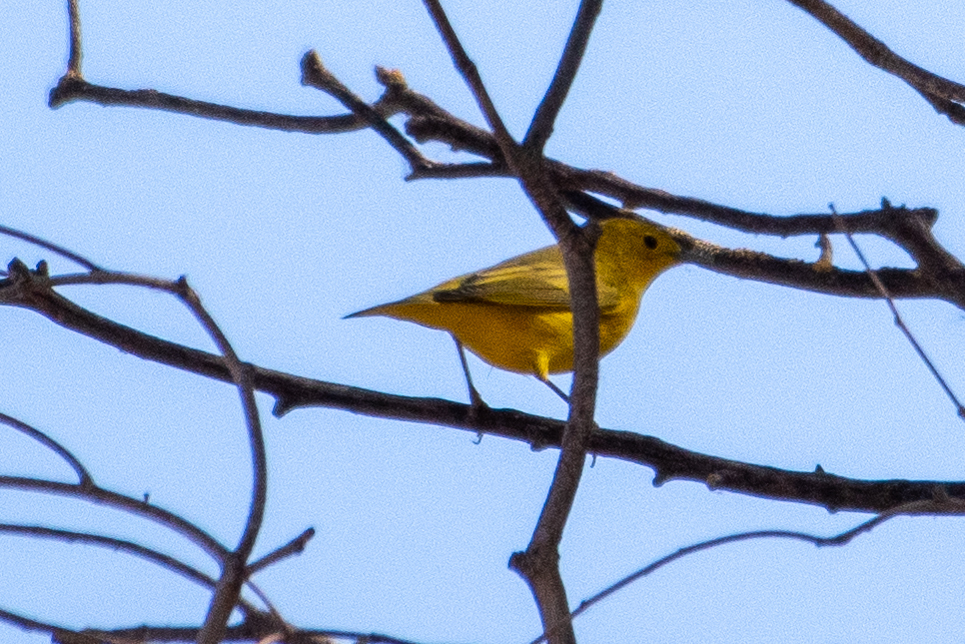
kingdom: Animalia
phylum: Chordata
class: Aves
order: Passeriformes
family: Parulidae
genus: Setophaga
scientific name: Setophaga petechia
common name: Yellow warbler
